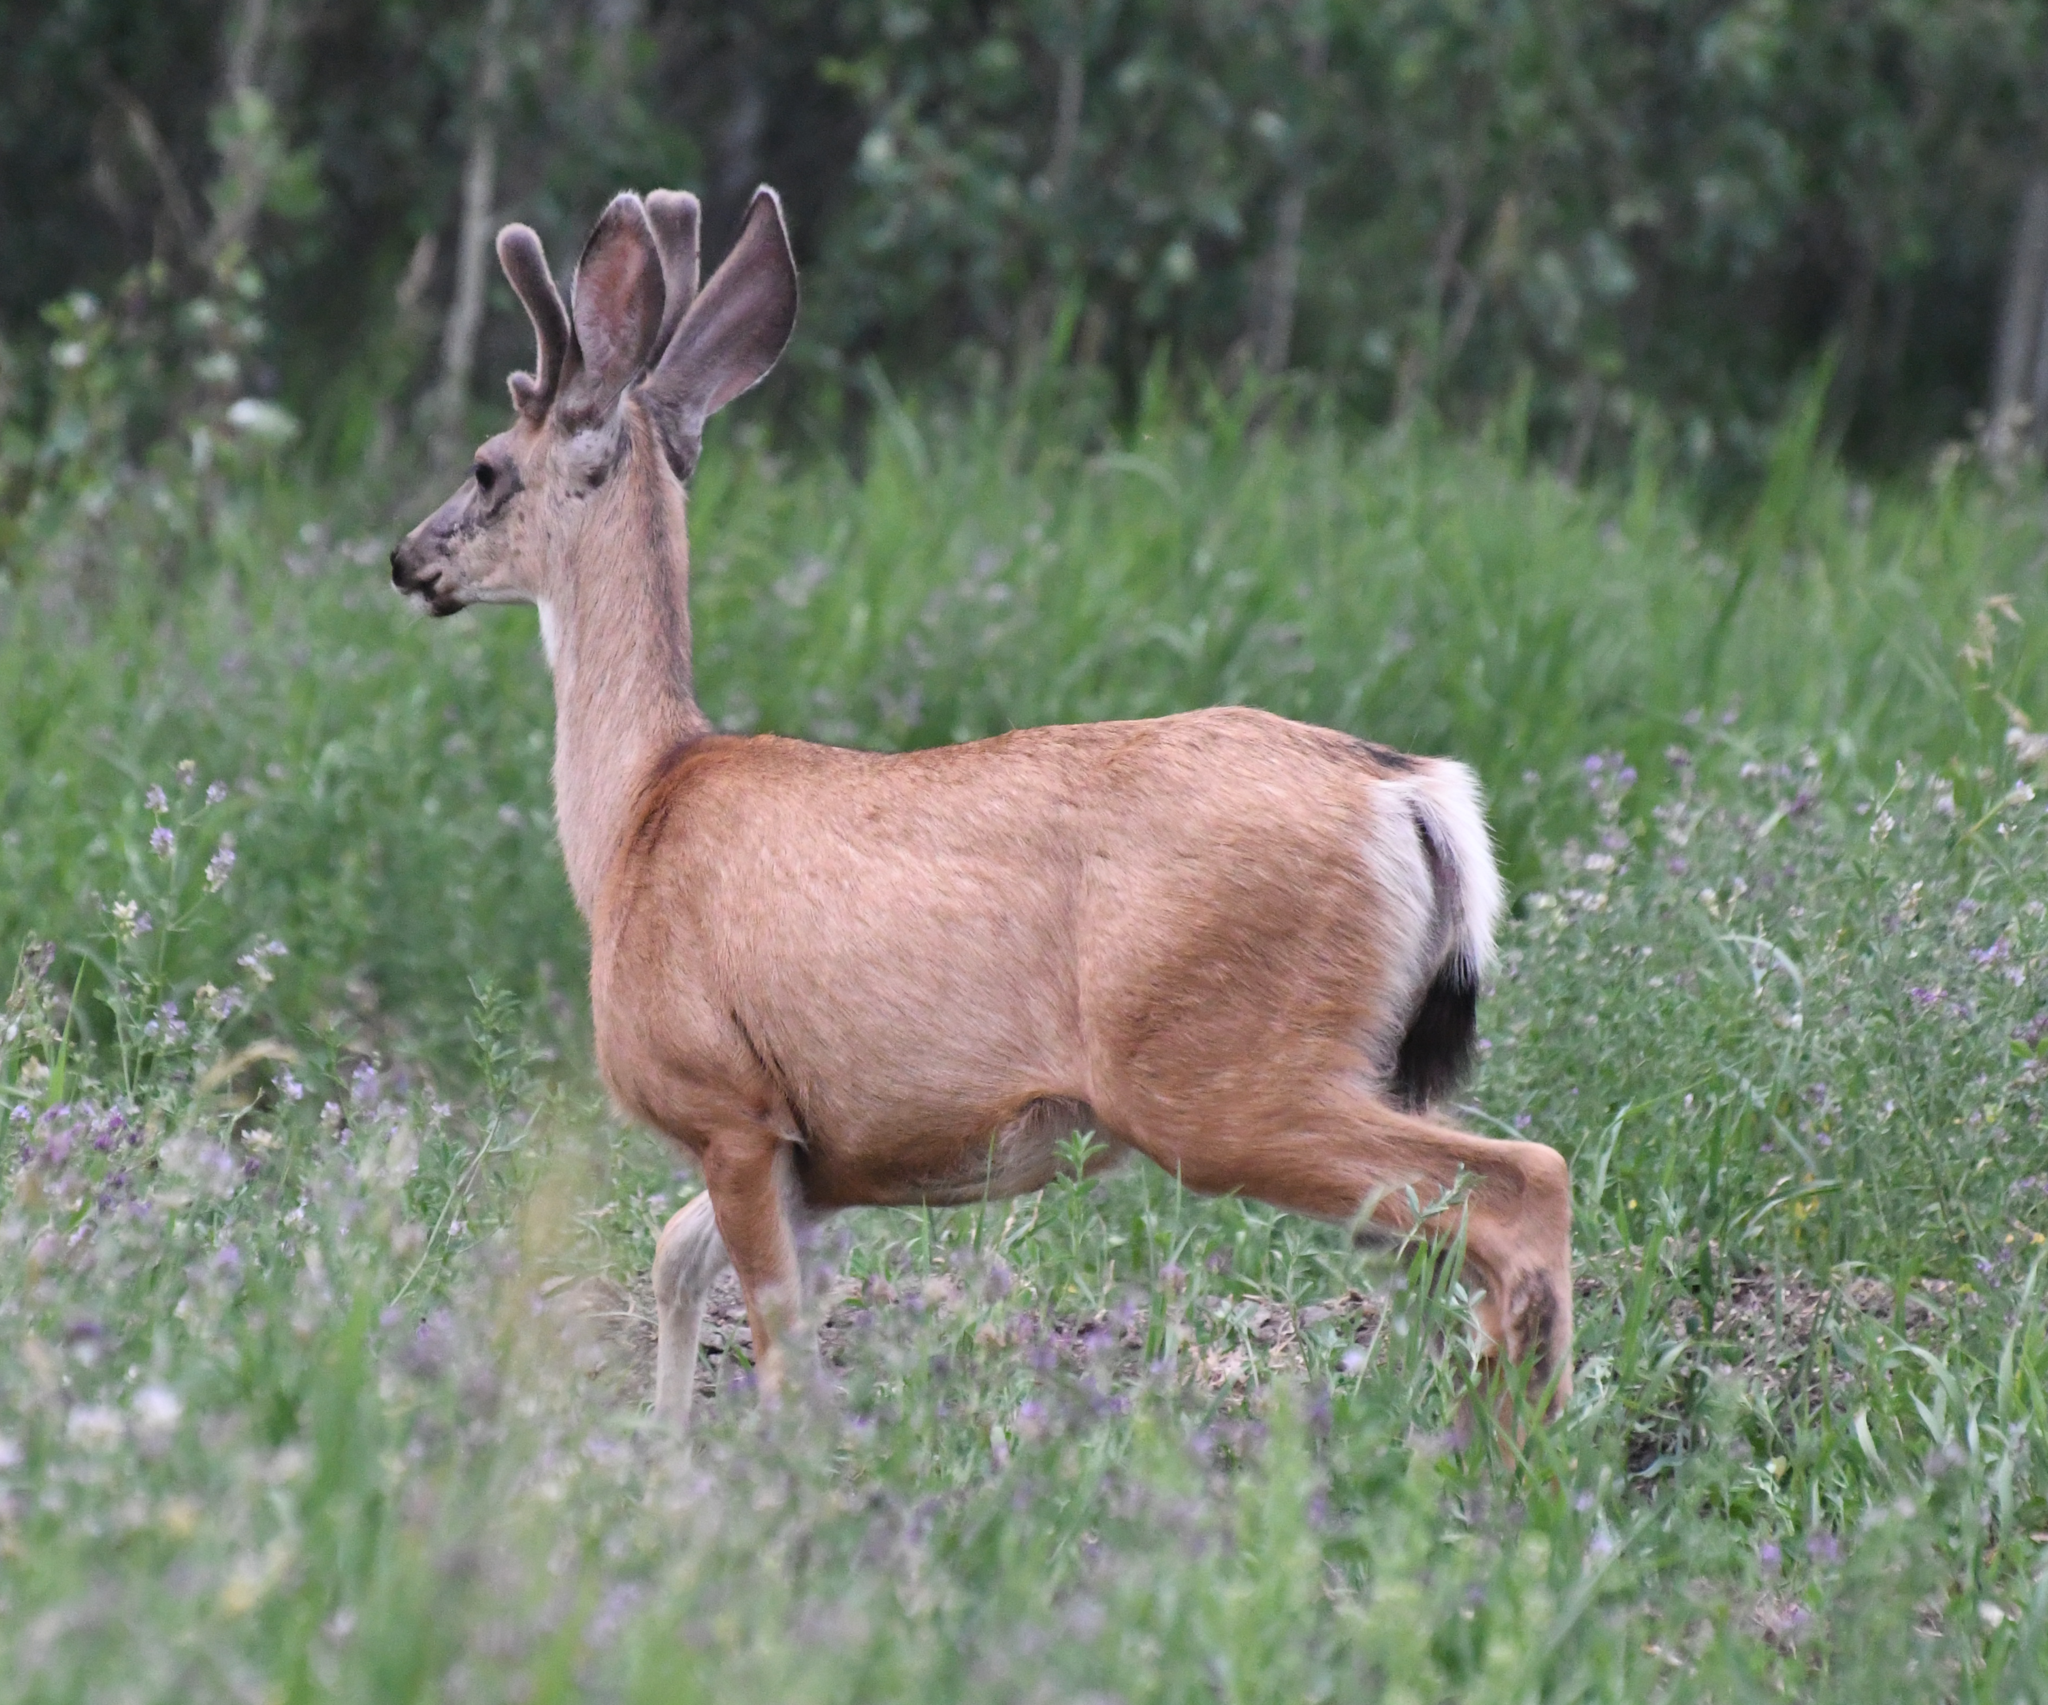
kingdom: Animalia
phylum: Chordata
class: Mammalia
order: Artiodactyla
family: Cervidae
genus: Odocoileus
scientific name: Odocoileus hemionus
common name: Mule deer
